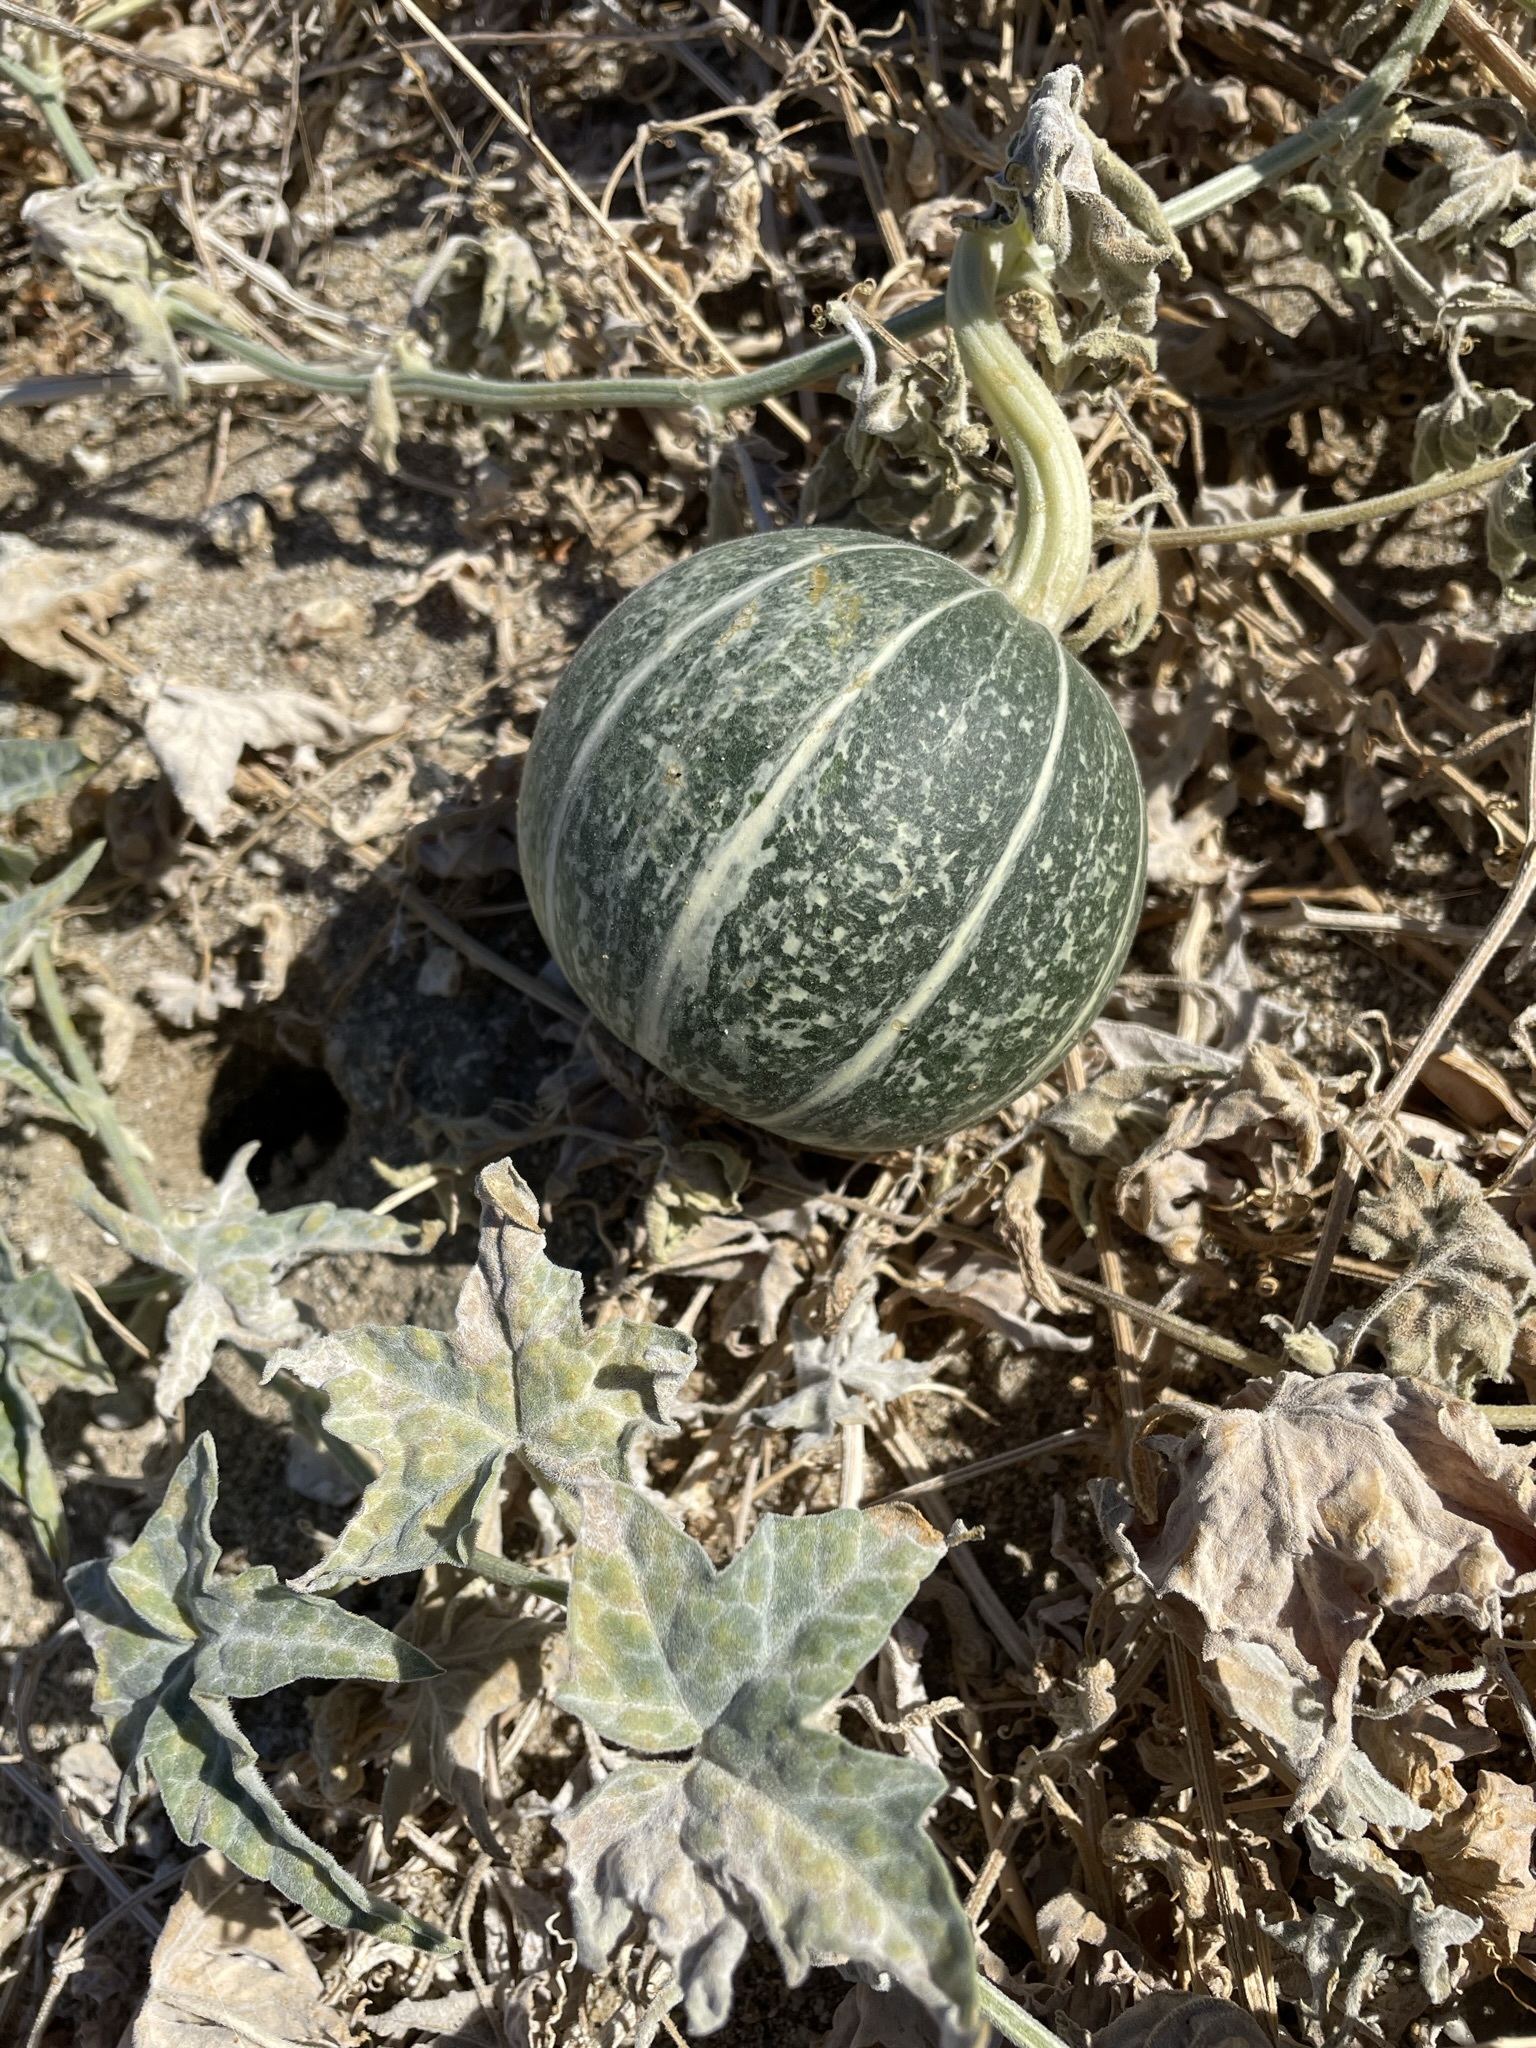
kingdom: Plantae
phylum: Tracheophyta
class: Magnoliopsida
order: Cucurbitales
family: Cucurbitaceae
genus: Cucurbita
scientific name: Cucurbita palmata
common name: Coyote-melon
